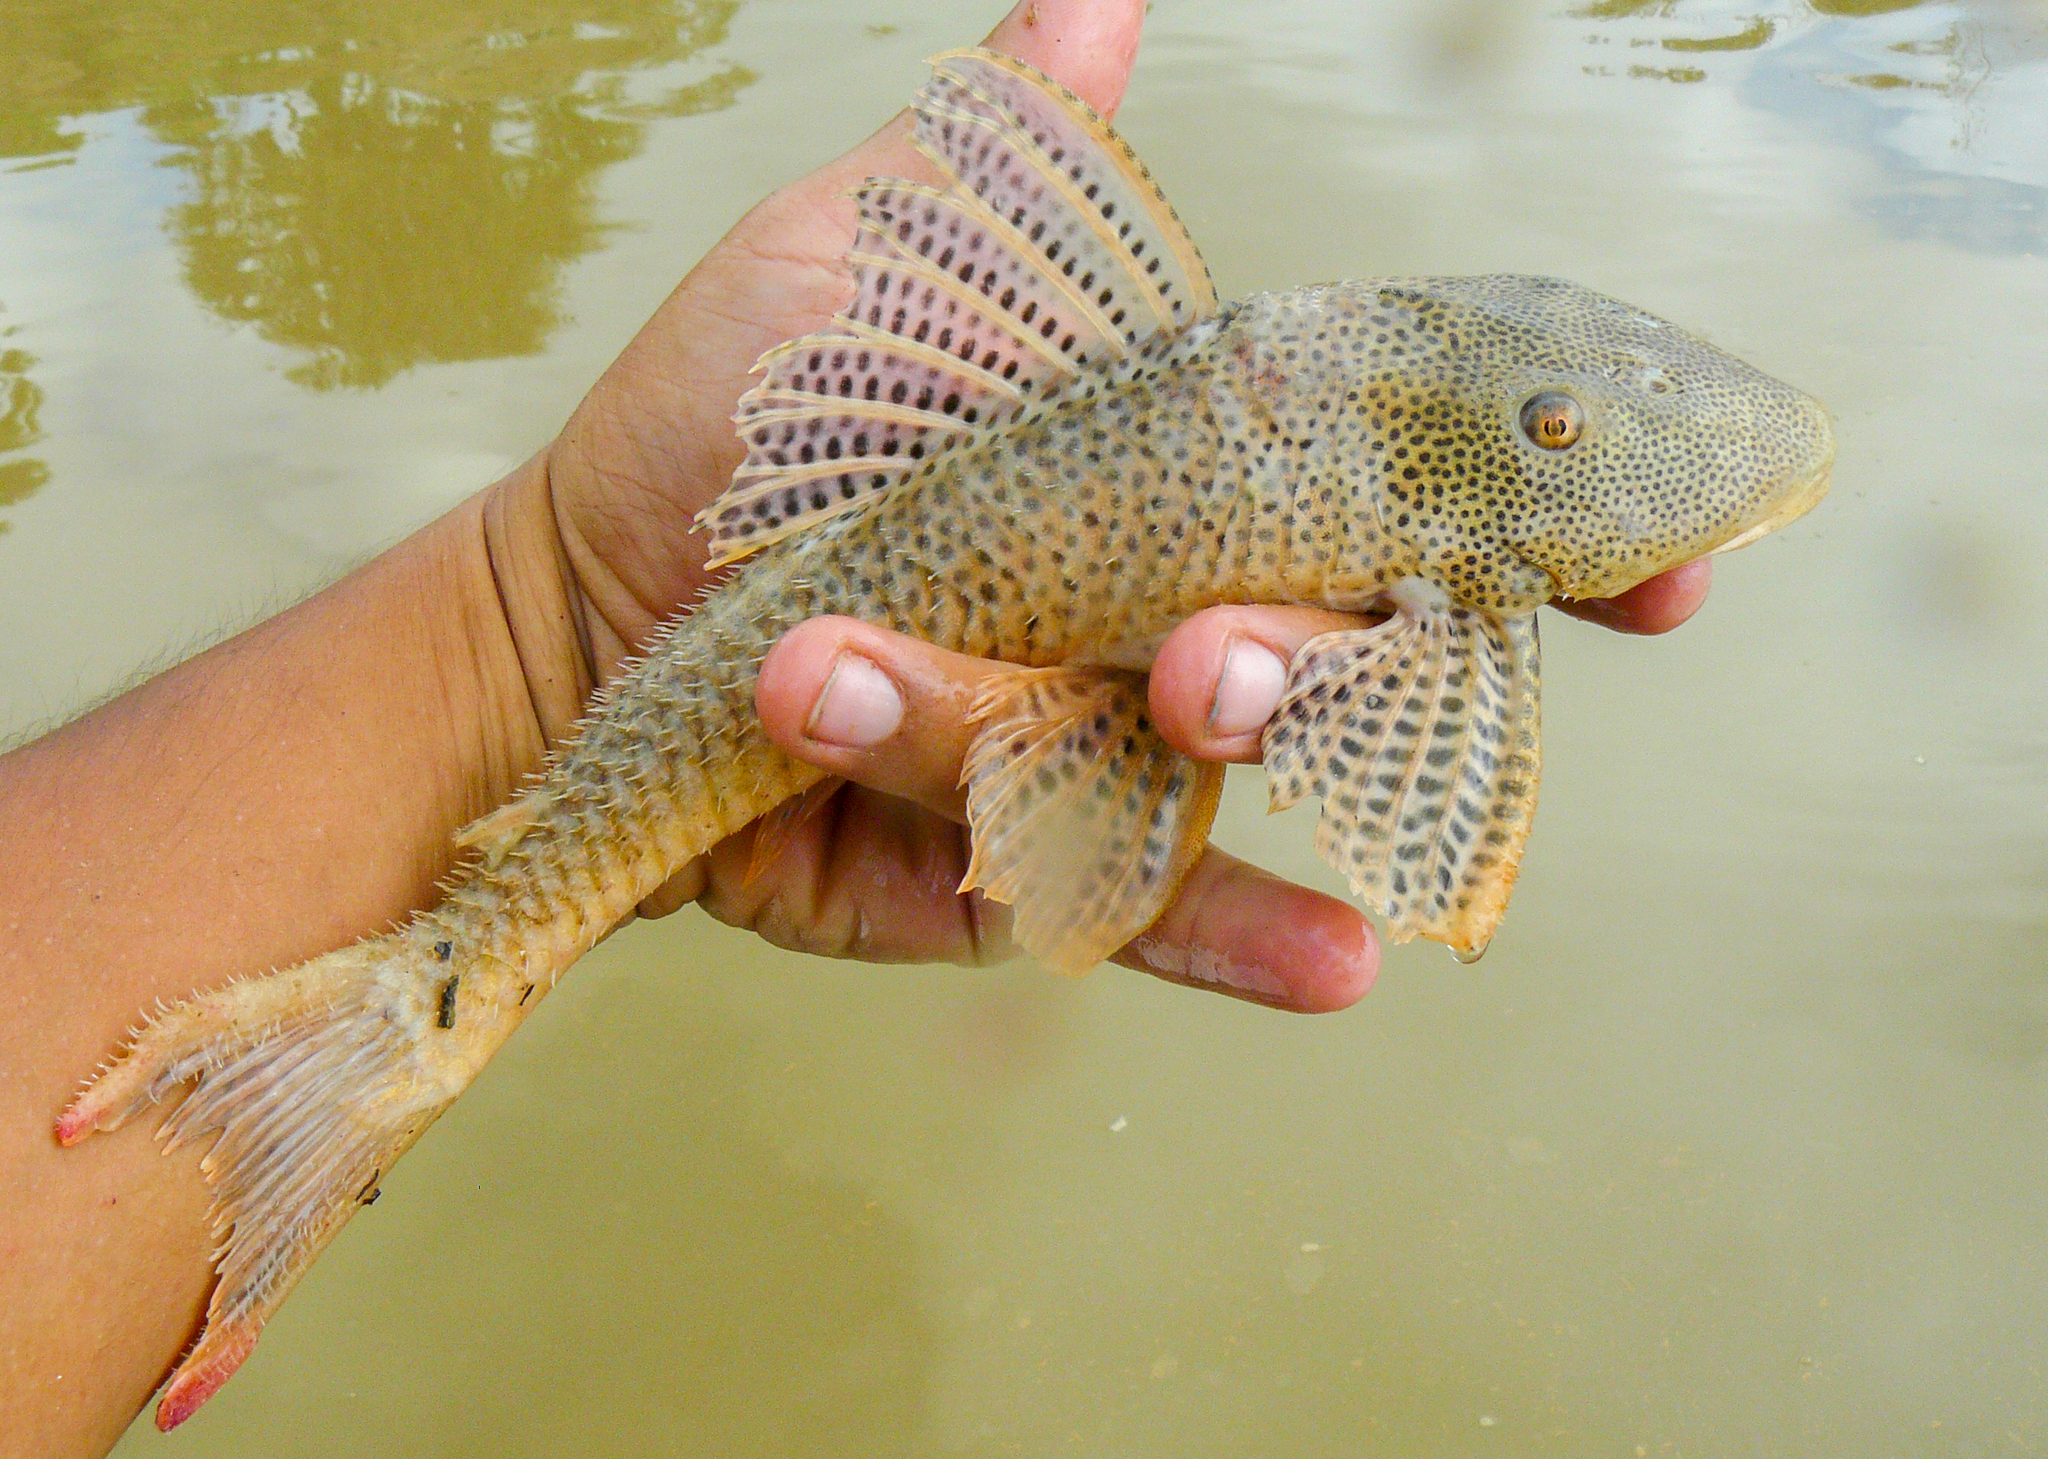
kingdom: Animalia
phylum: Chordata
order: Siluriformes
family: Loricariidae
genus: Aphanotorulus
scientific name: Aphanotorulus unicolor
